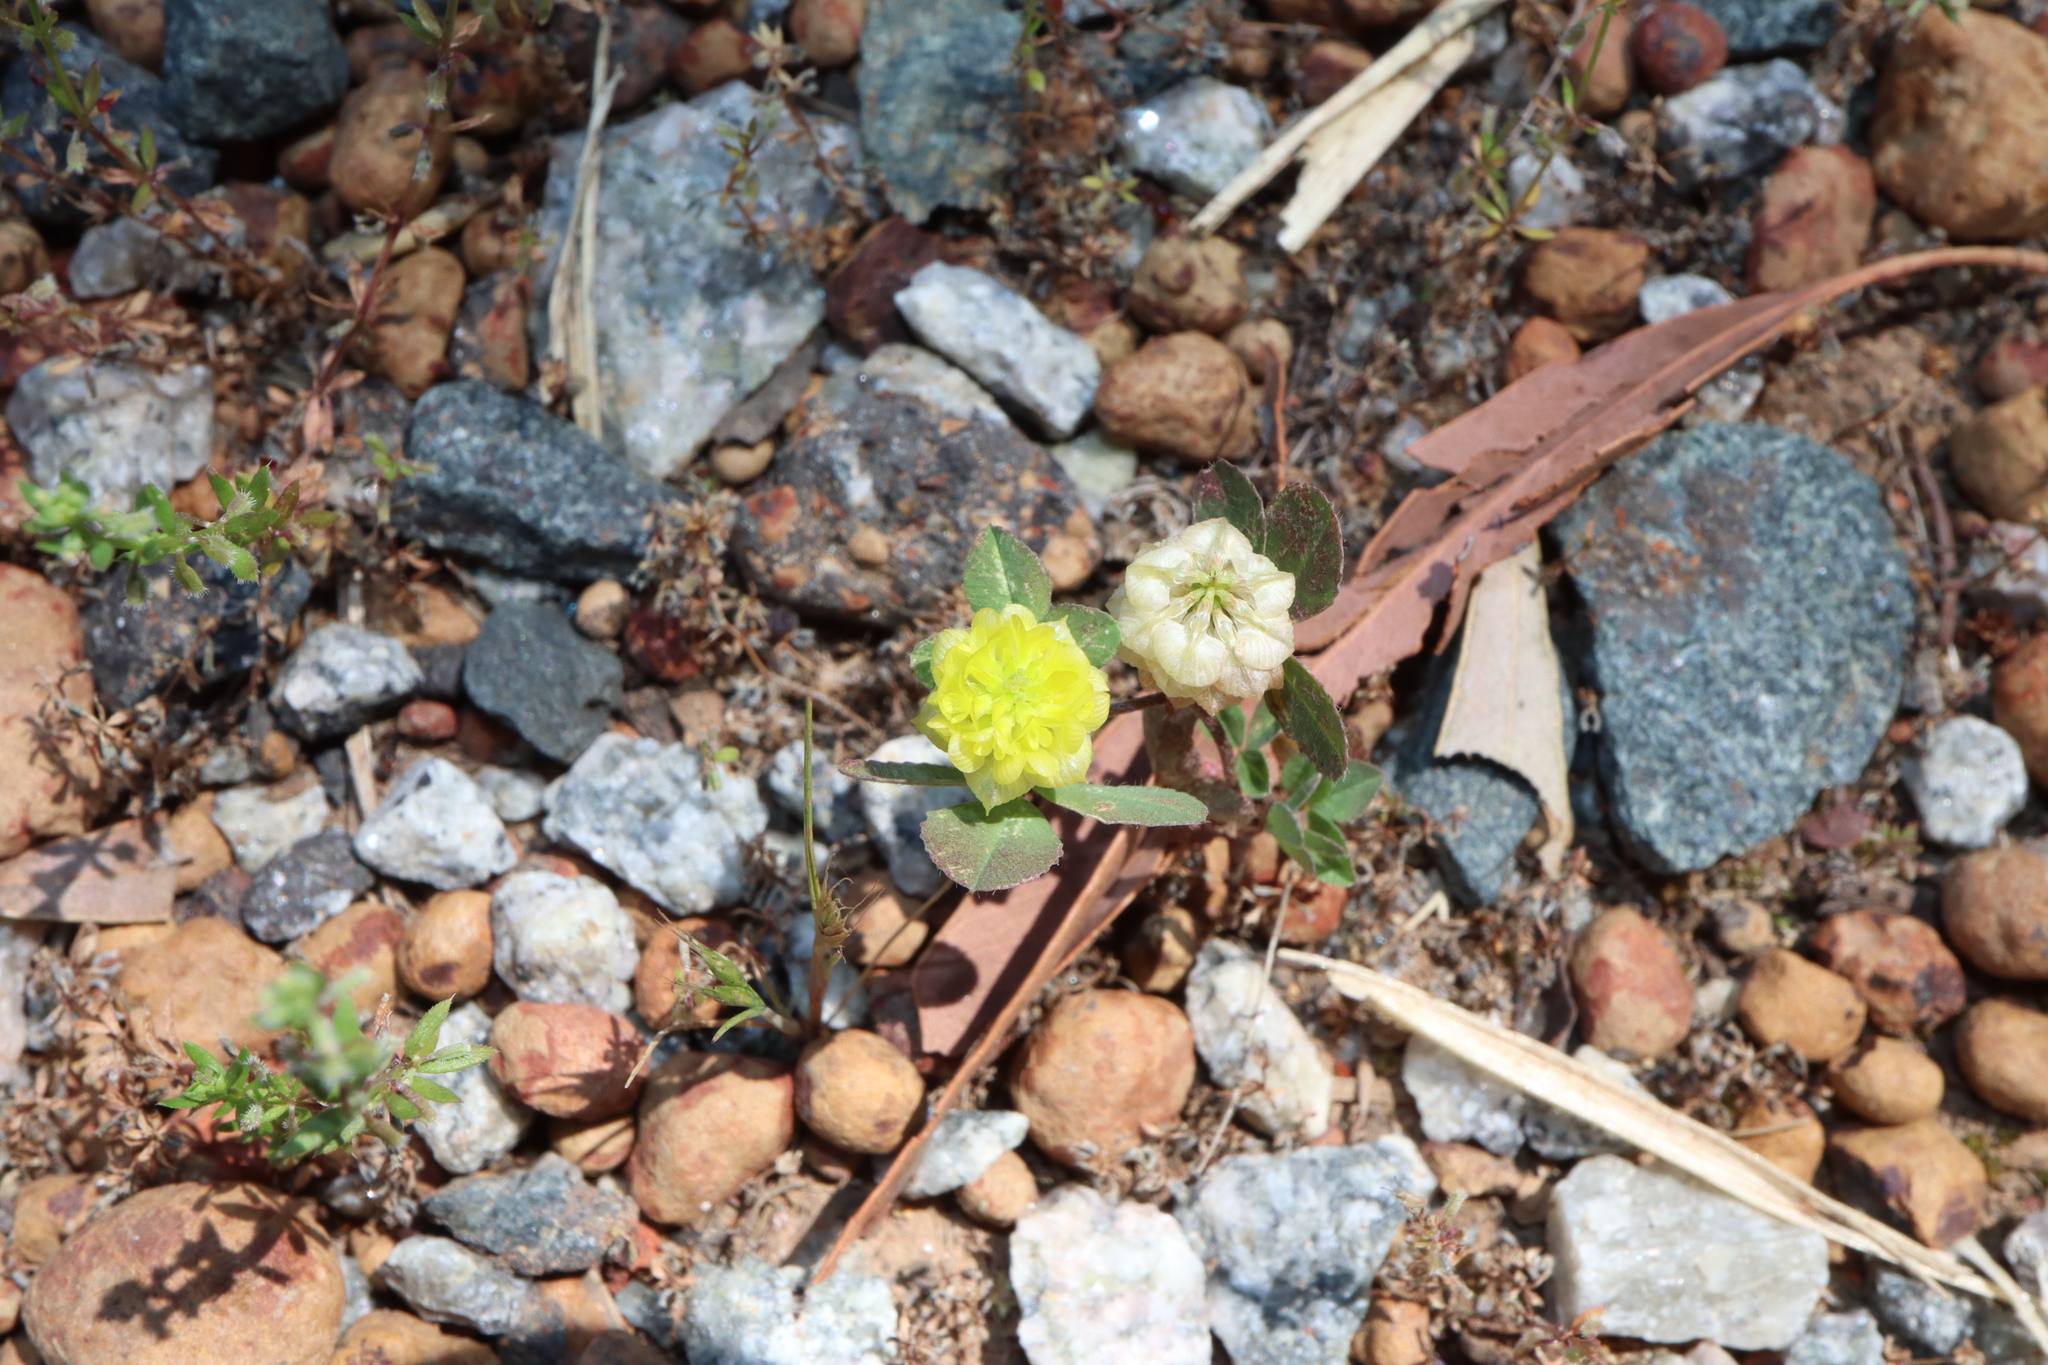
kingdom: Plantae
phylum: Tracheophyta
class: Magnoliopsida
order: Fabales
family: Fabaceae
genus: Trifolium
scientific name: Trifolium campestre
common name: Field clover
